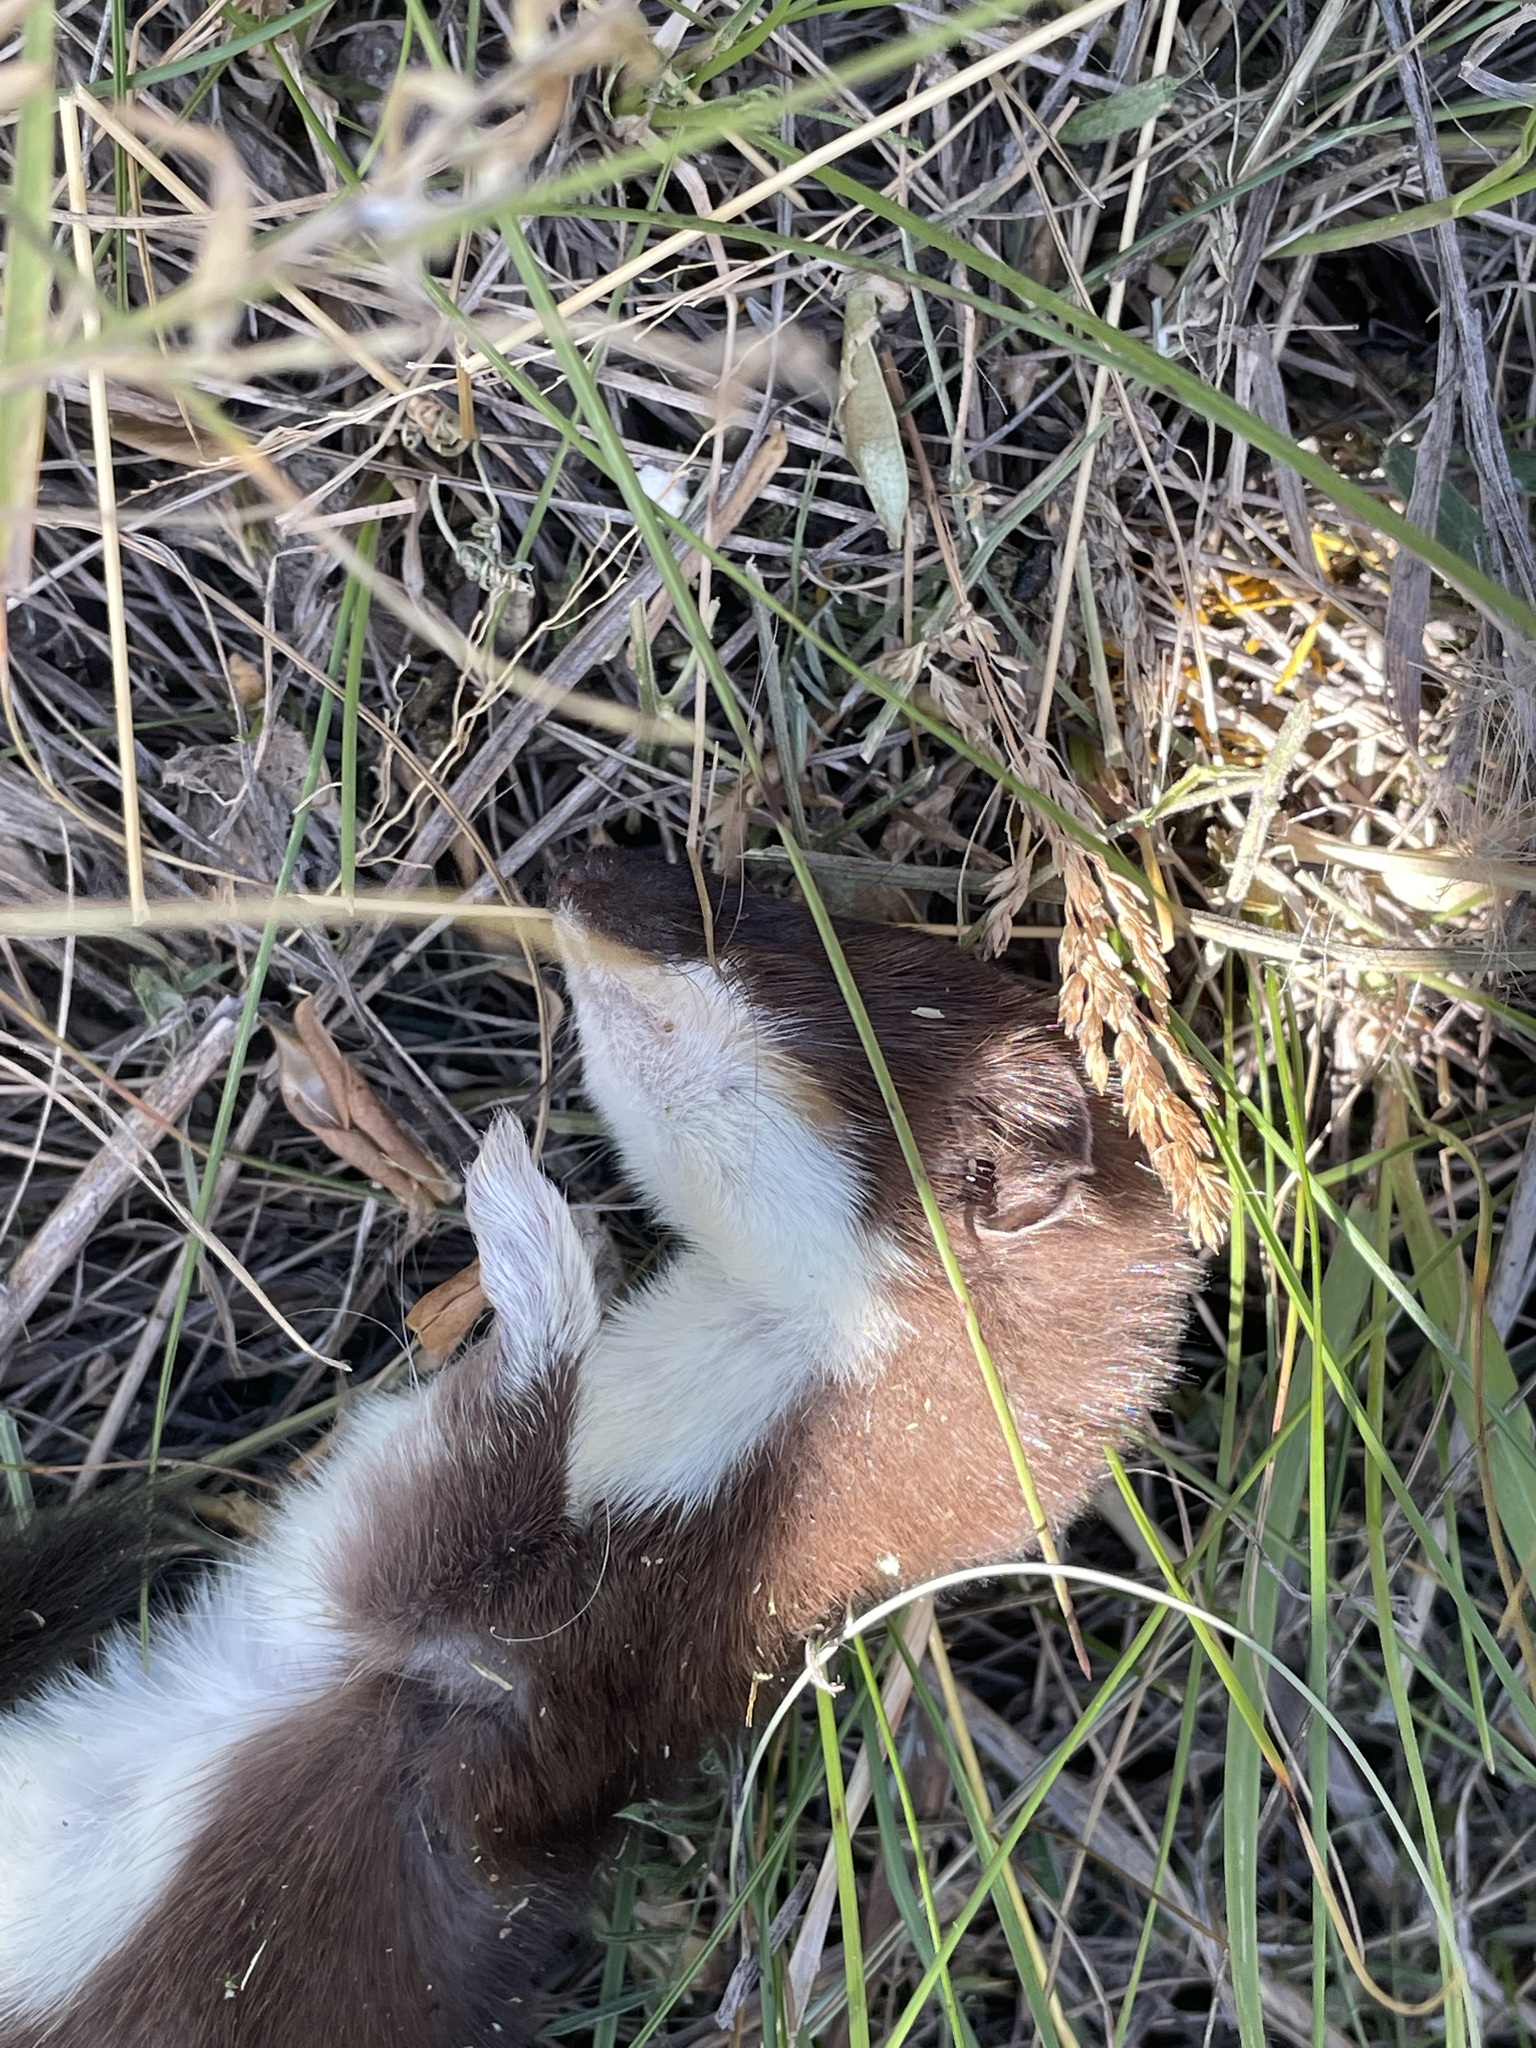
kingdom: Animalia
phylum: Chordata
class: Mammalia
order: Carnivora
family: Mustelidae
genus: Mustela
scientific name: Mustela erminea
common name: Stoat
